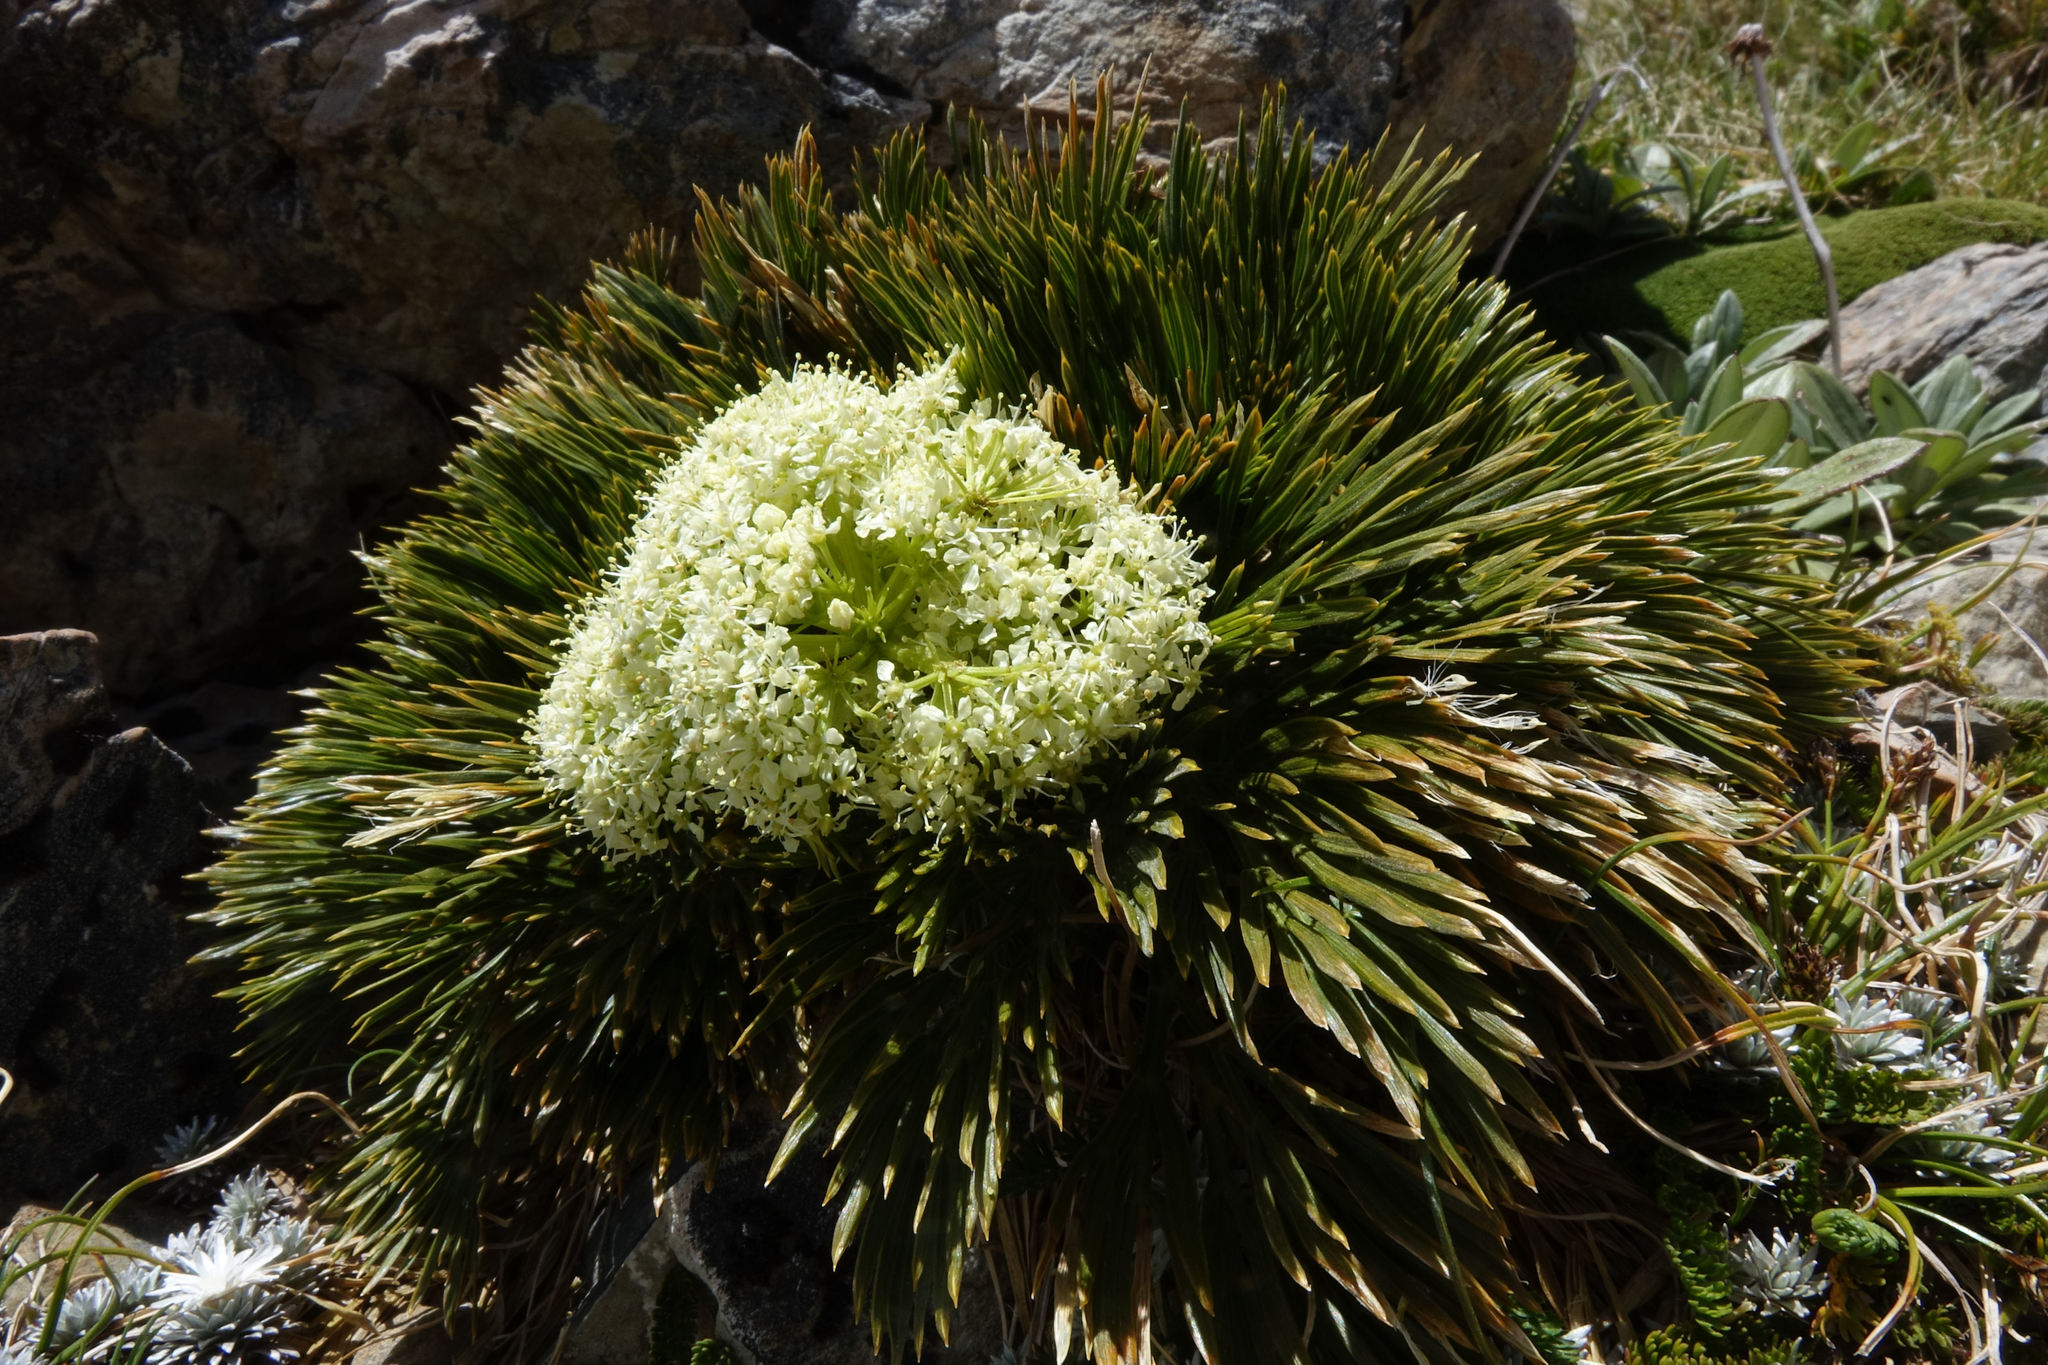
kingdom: Plantae
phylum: Tracheophyta
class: Magnoliopsida
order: Apiales
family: Apiaceae
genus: Aciphylla
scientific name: Aciphylla divisa
